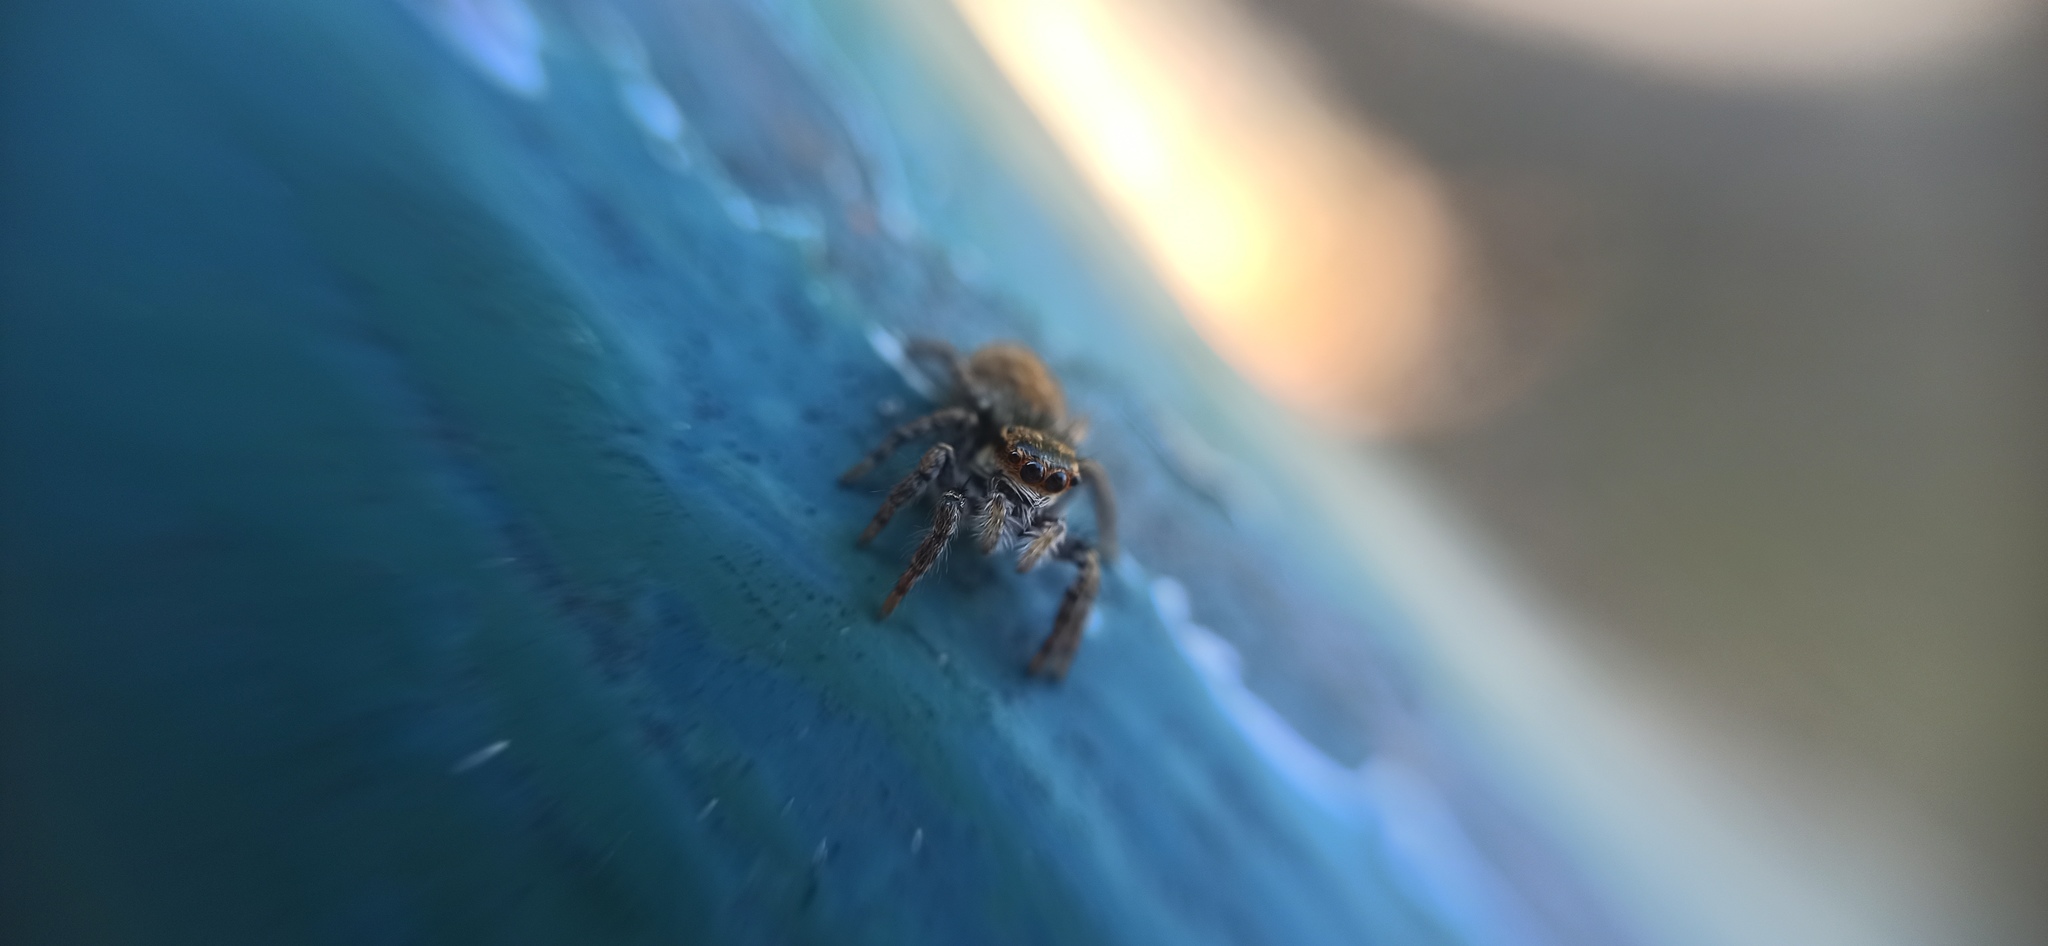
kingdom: Animalia
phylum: Arthropoda
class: Arachnida
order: Araneae
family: Salticidae
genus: Carrhotus
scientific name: Carrhotus xanthogramma
